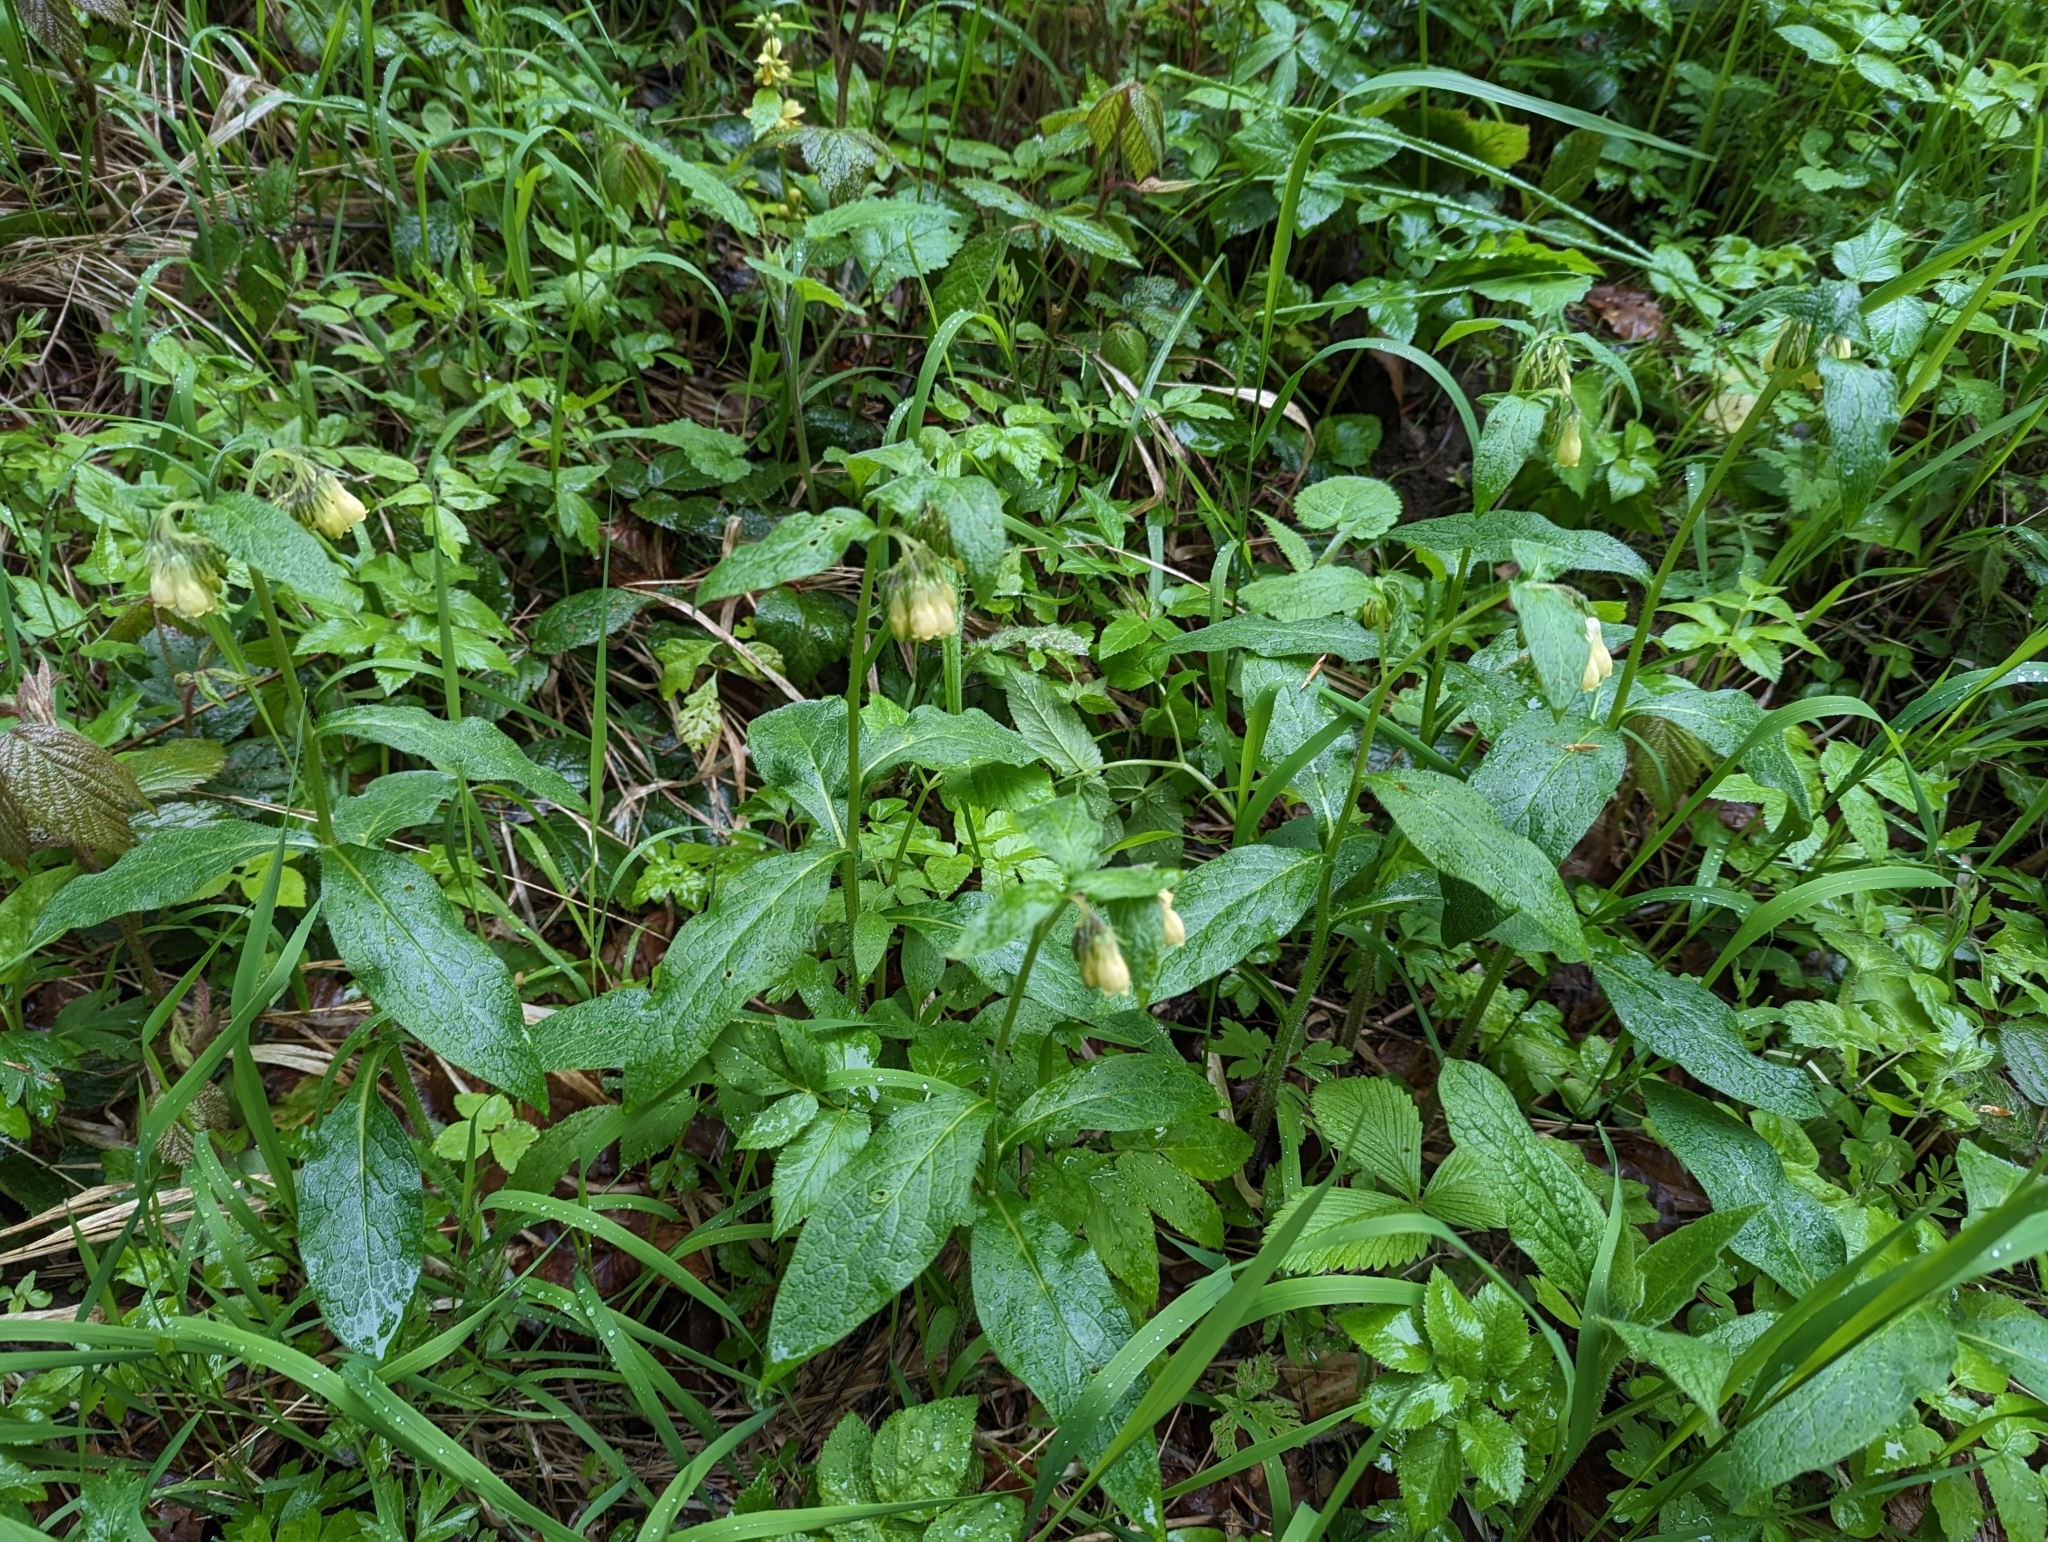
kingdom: Plantae
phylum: Tracheophyta
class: Magnoliopsida
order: Boraginales
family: Boraginaceae
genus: Symphytum
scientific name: Symphytum tuberosum
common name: Tuberous comfrey
